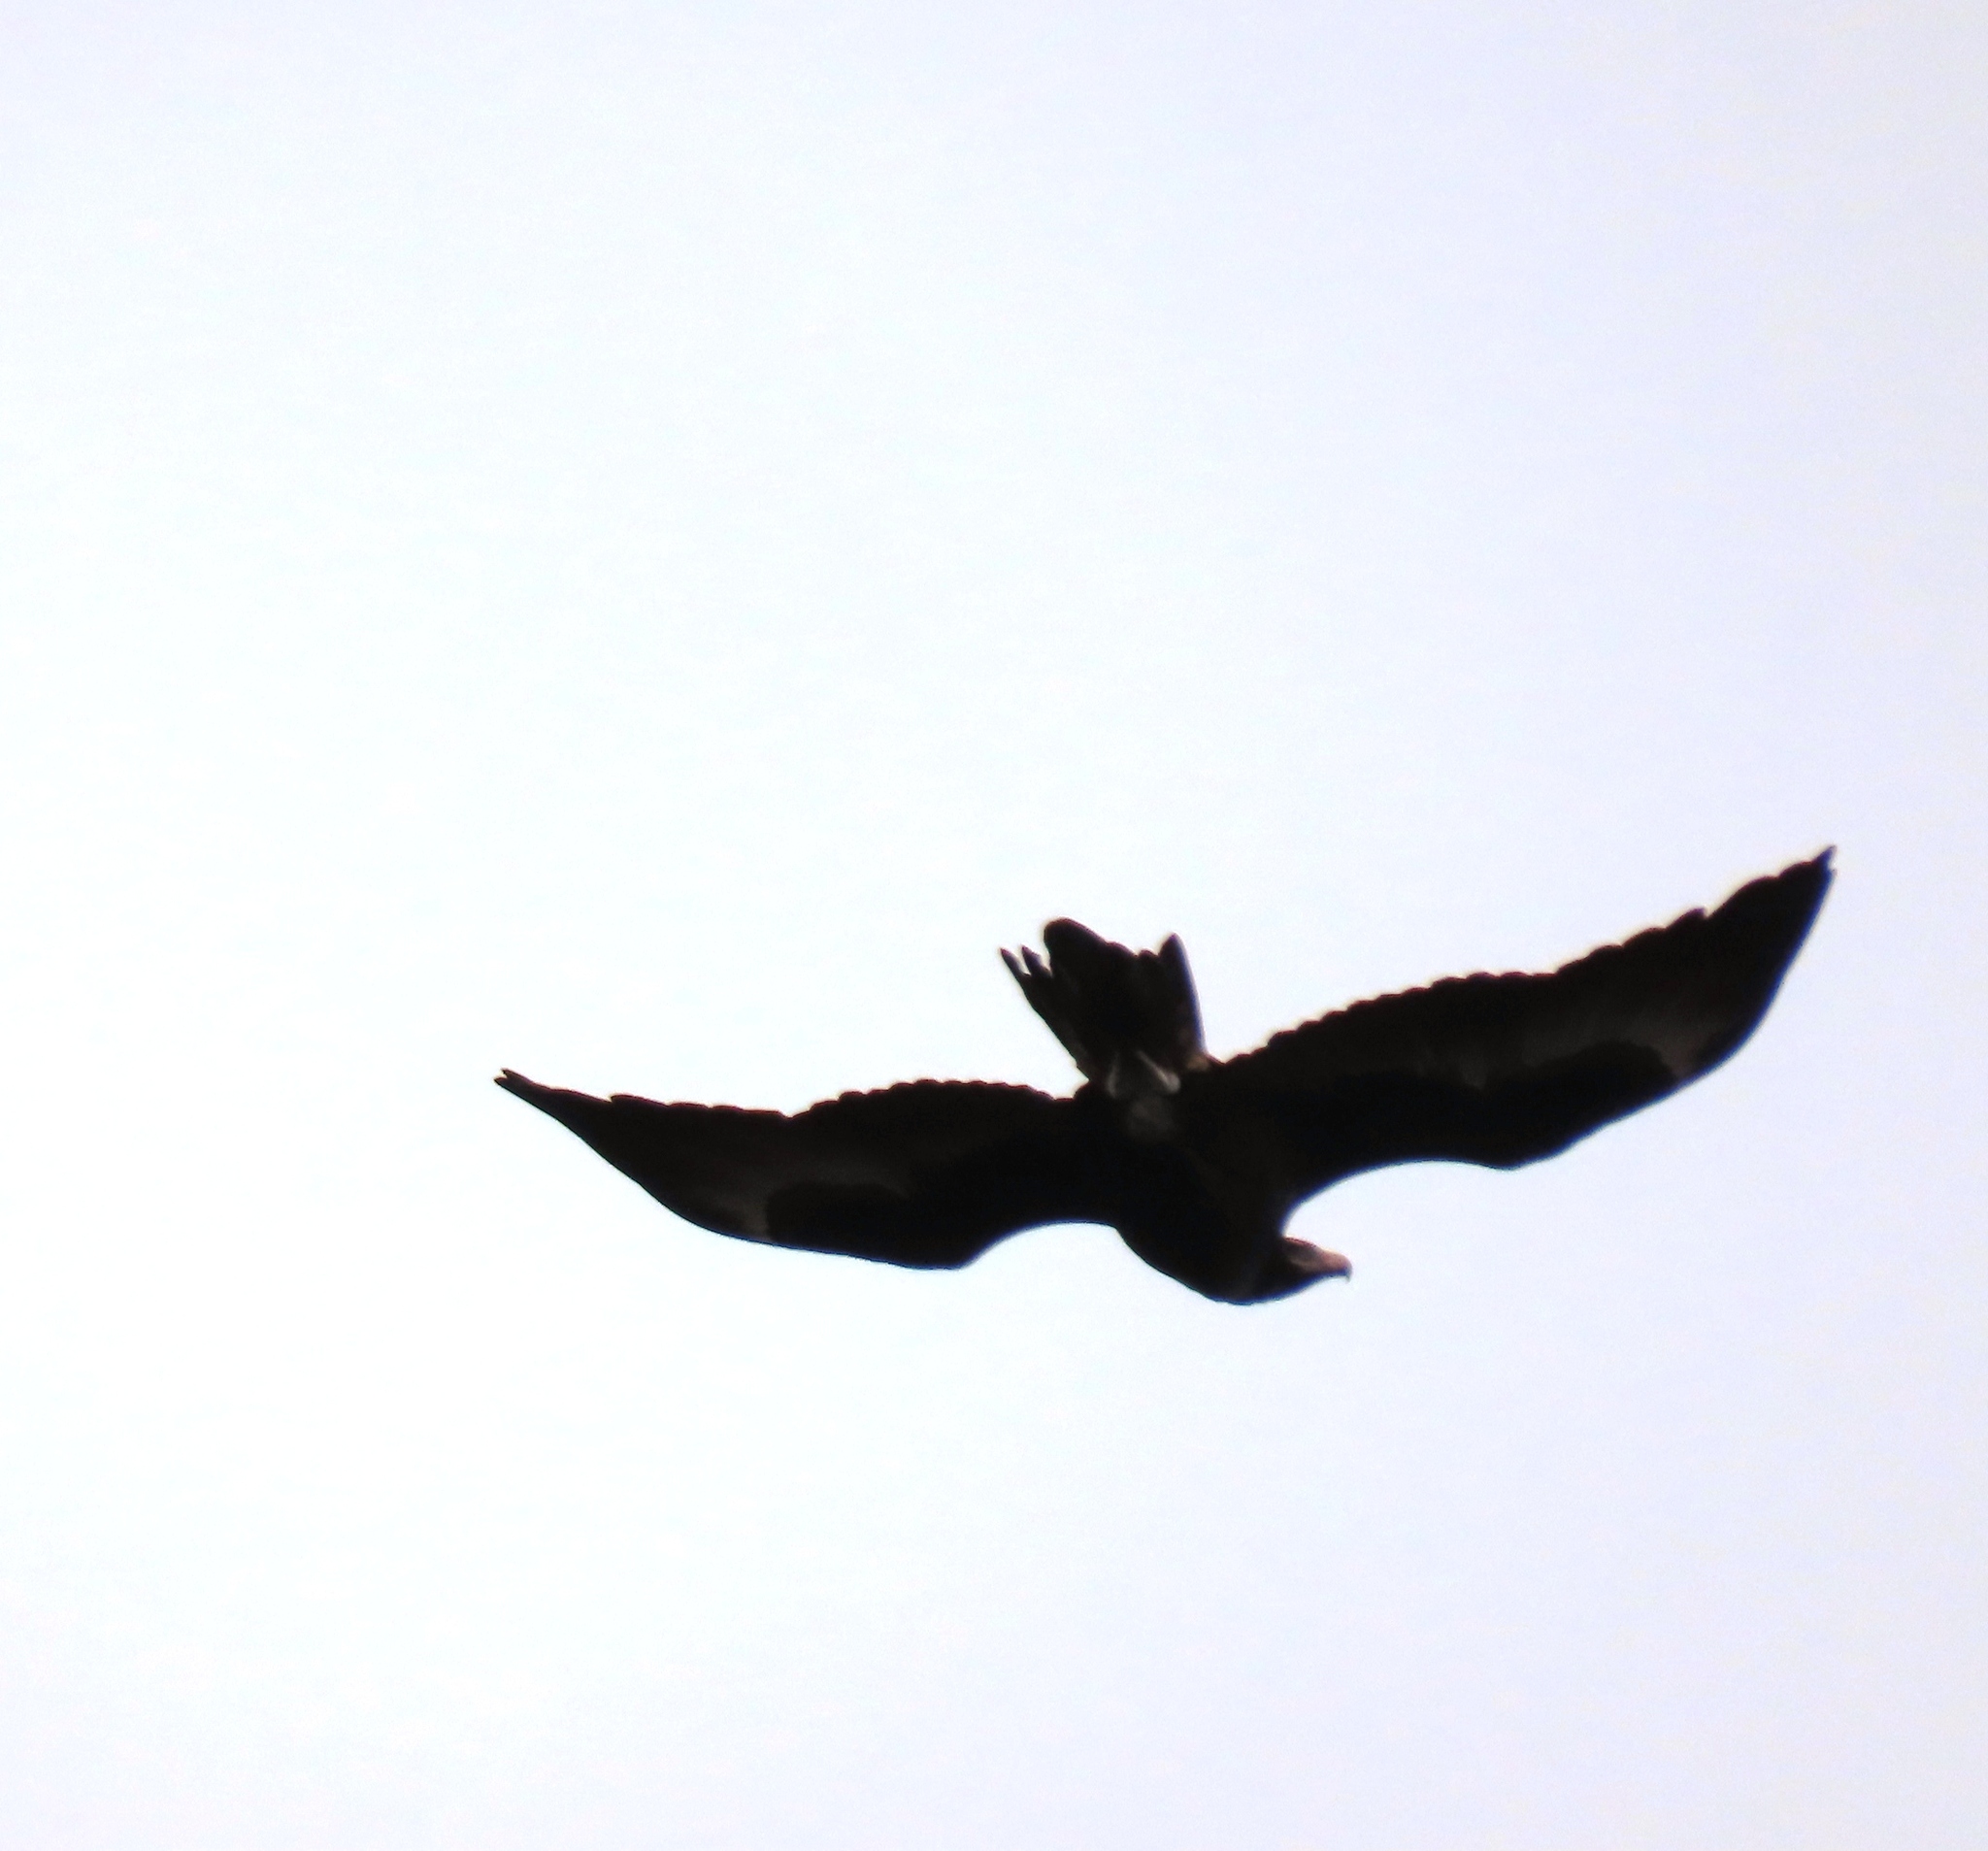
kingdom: Animalia
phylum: Chordata
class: Aves
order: Accipitriformes
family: Accipitridae
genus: Aquila
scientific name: Aquila audax
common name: Wedge-tailed eagle
